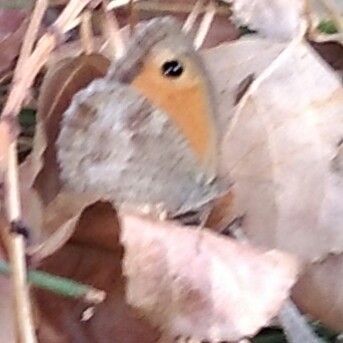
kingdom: Animalia
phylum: Arthropoda
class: Insecta
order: Lepidoptera
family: Nymphalidae
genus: Pyronia
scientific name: Pyronia tithonus
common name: Gatekeeper
